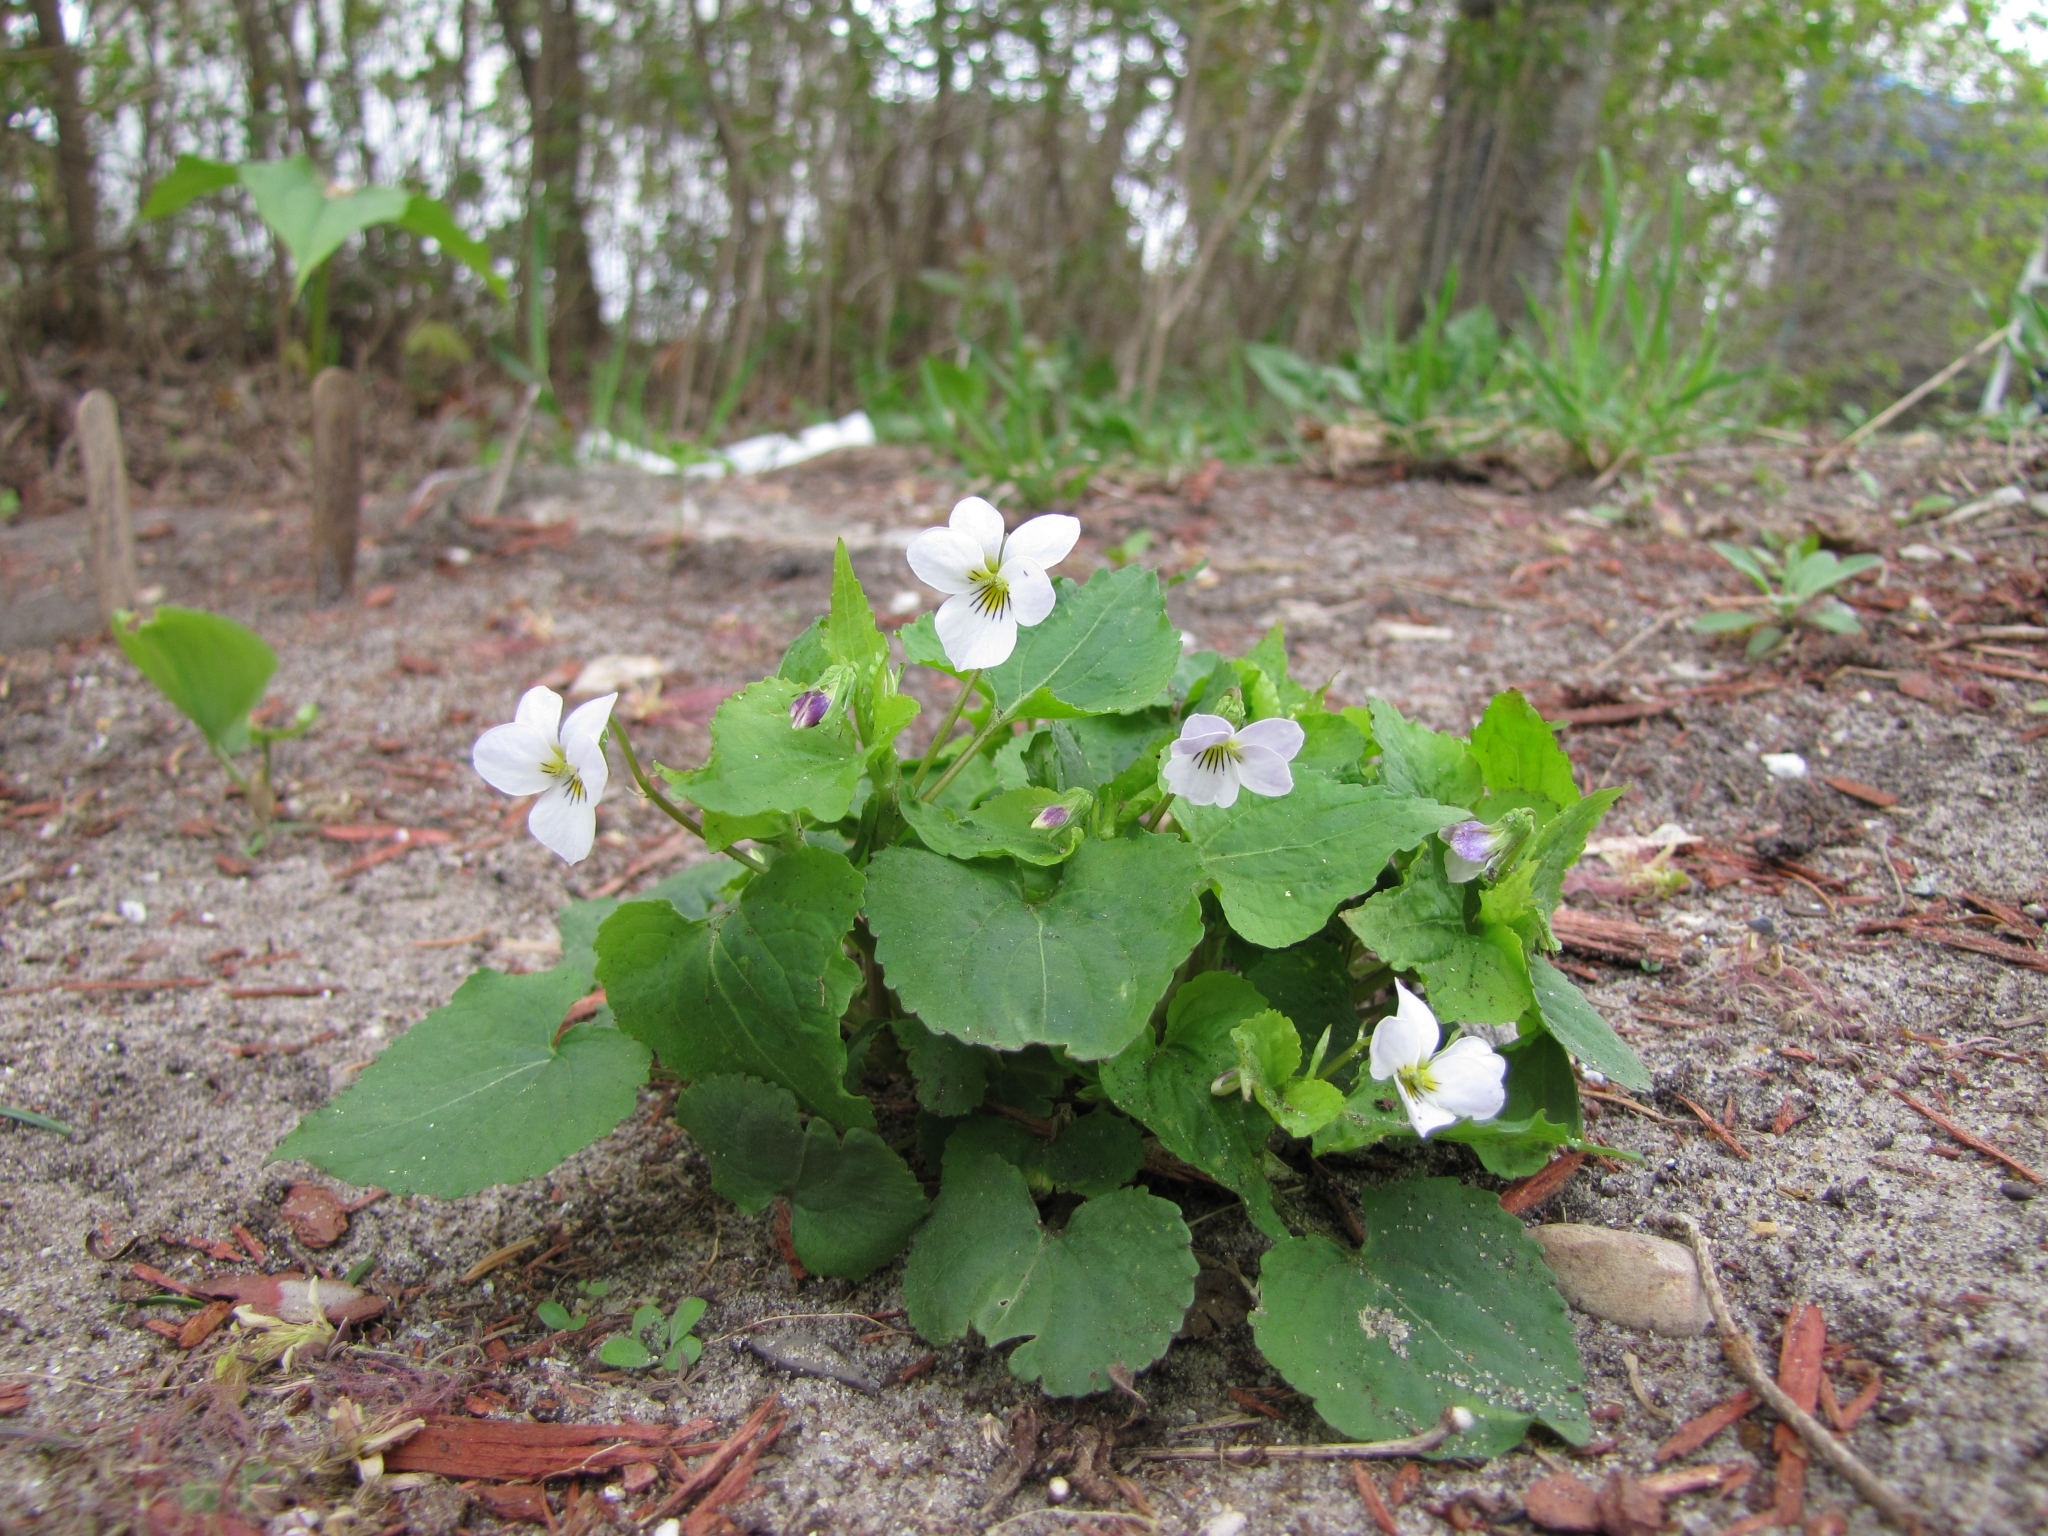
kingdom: Plantae
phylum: Tracheophyta
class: Magnoliopsida
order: Malpighiales
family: Violaceae
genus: Viola
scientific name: Viola canadensis
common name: Canada violet
